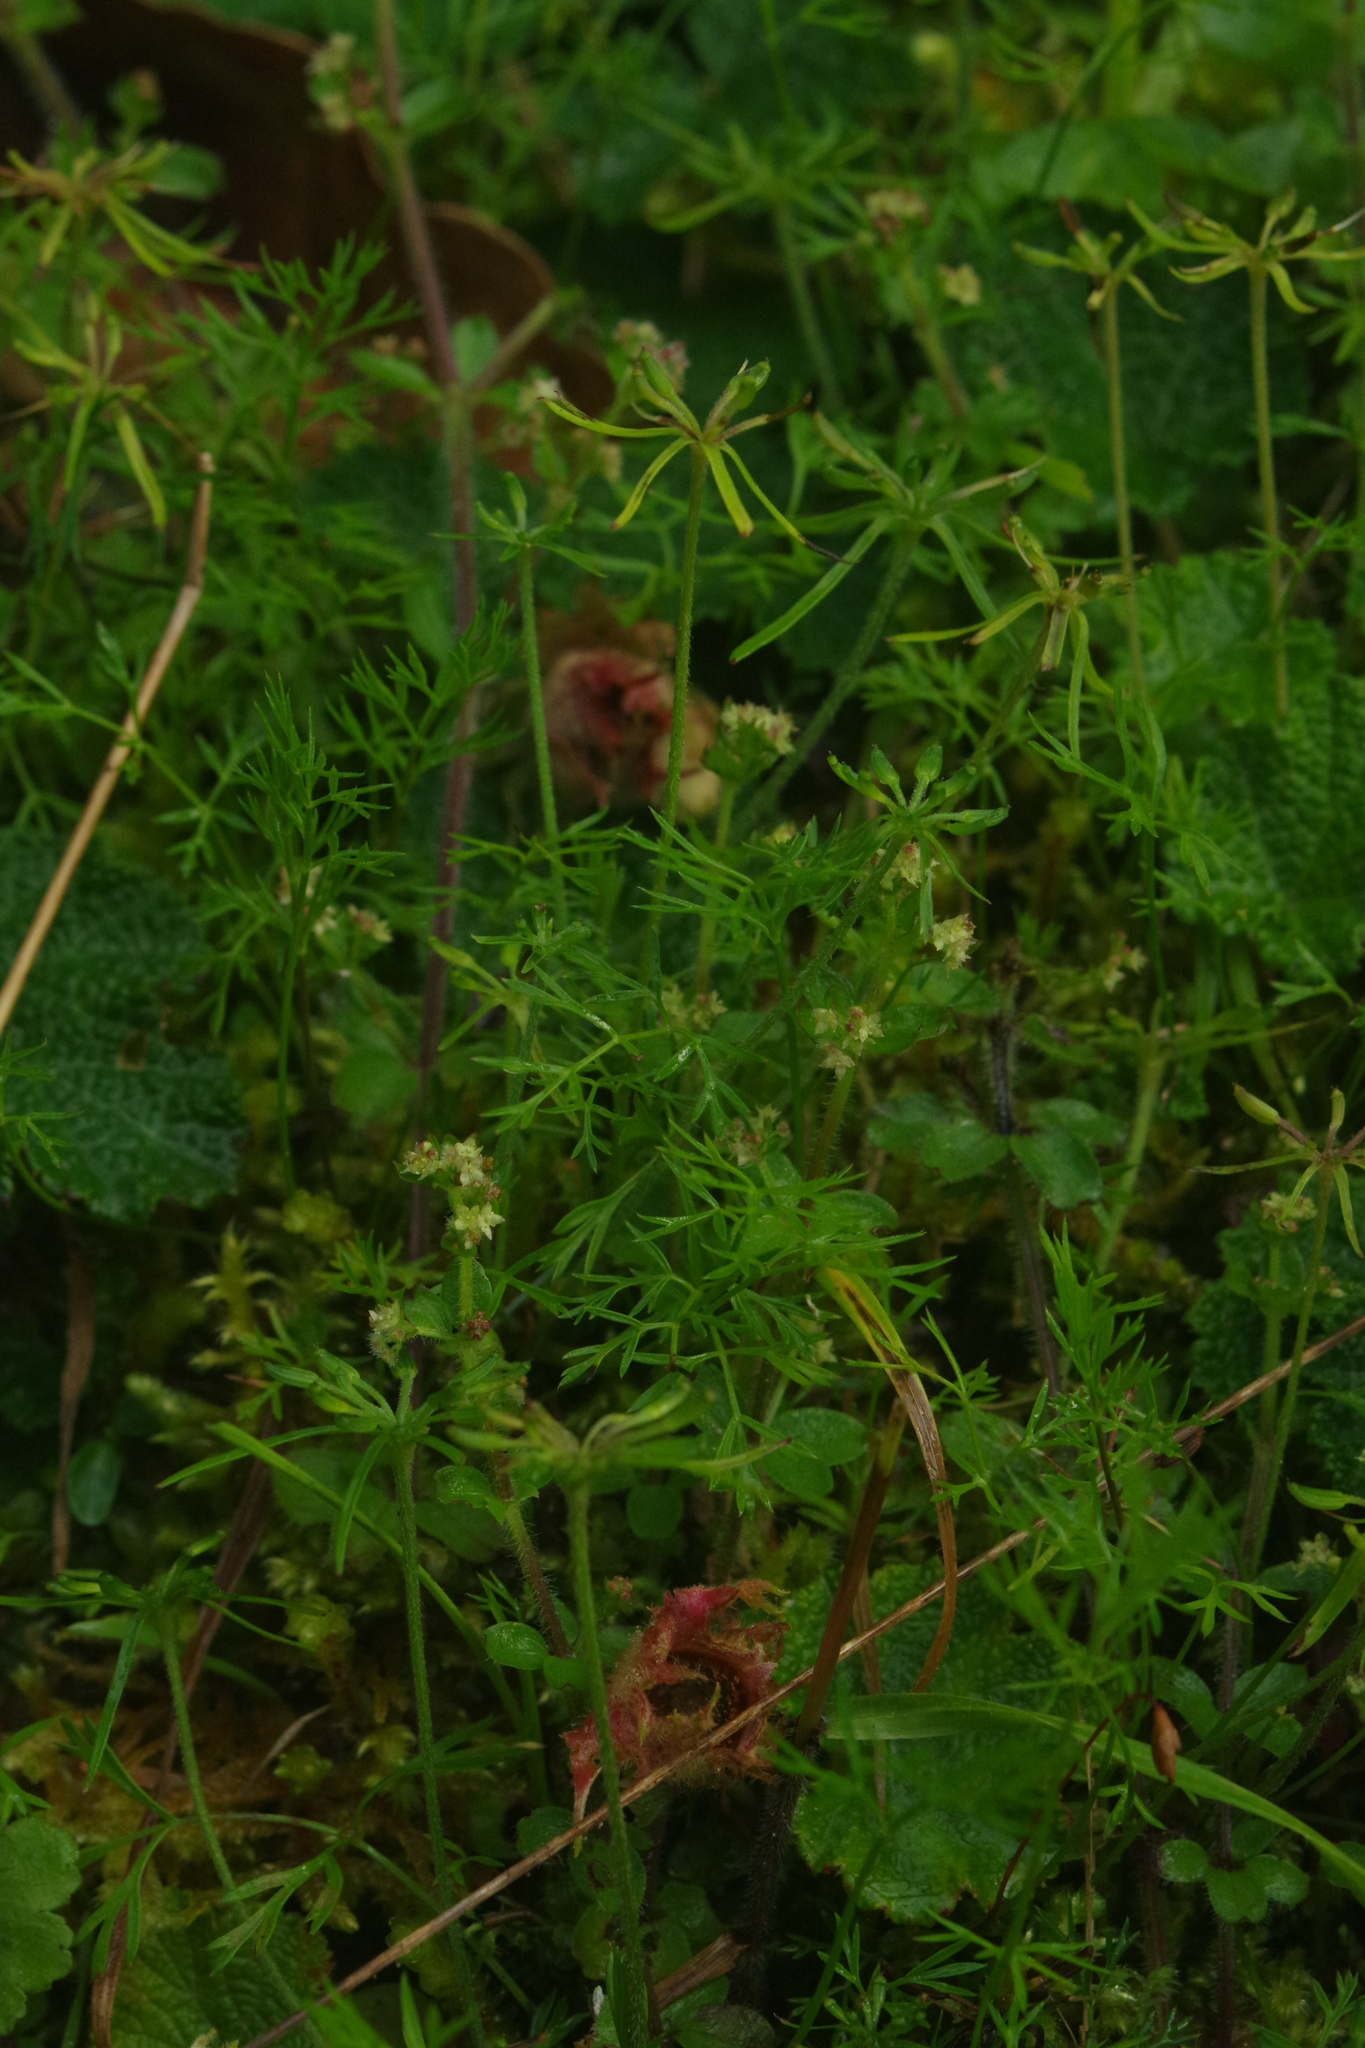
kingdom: Plantae
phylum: Tracheophyta
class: Magnoliopsida
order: Apiales
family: Apiaceae
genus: Chaerophyllum
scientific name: Chaerophyllum involucratum
